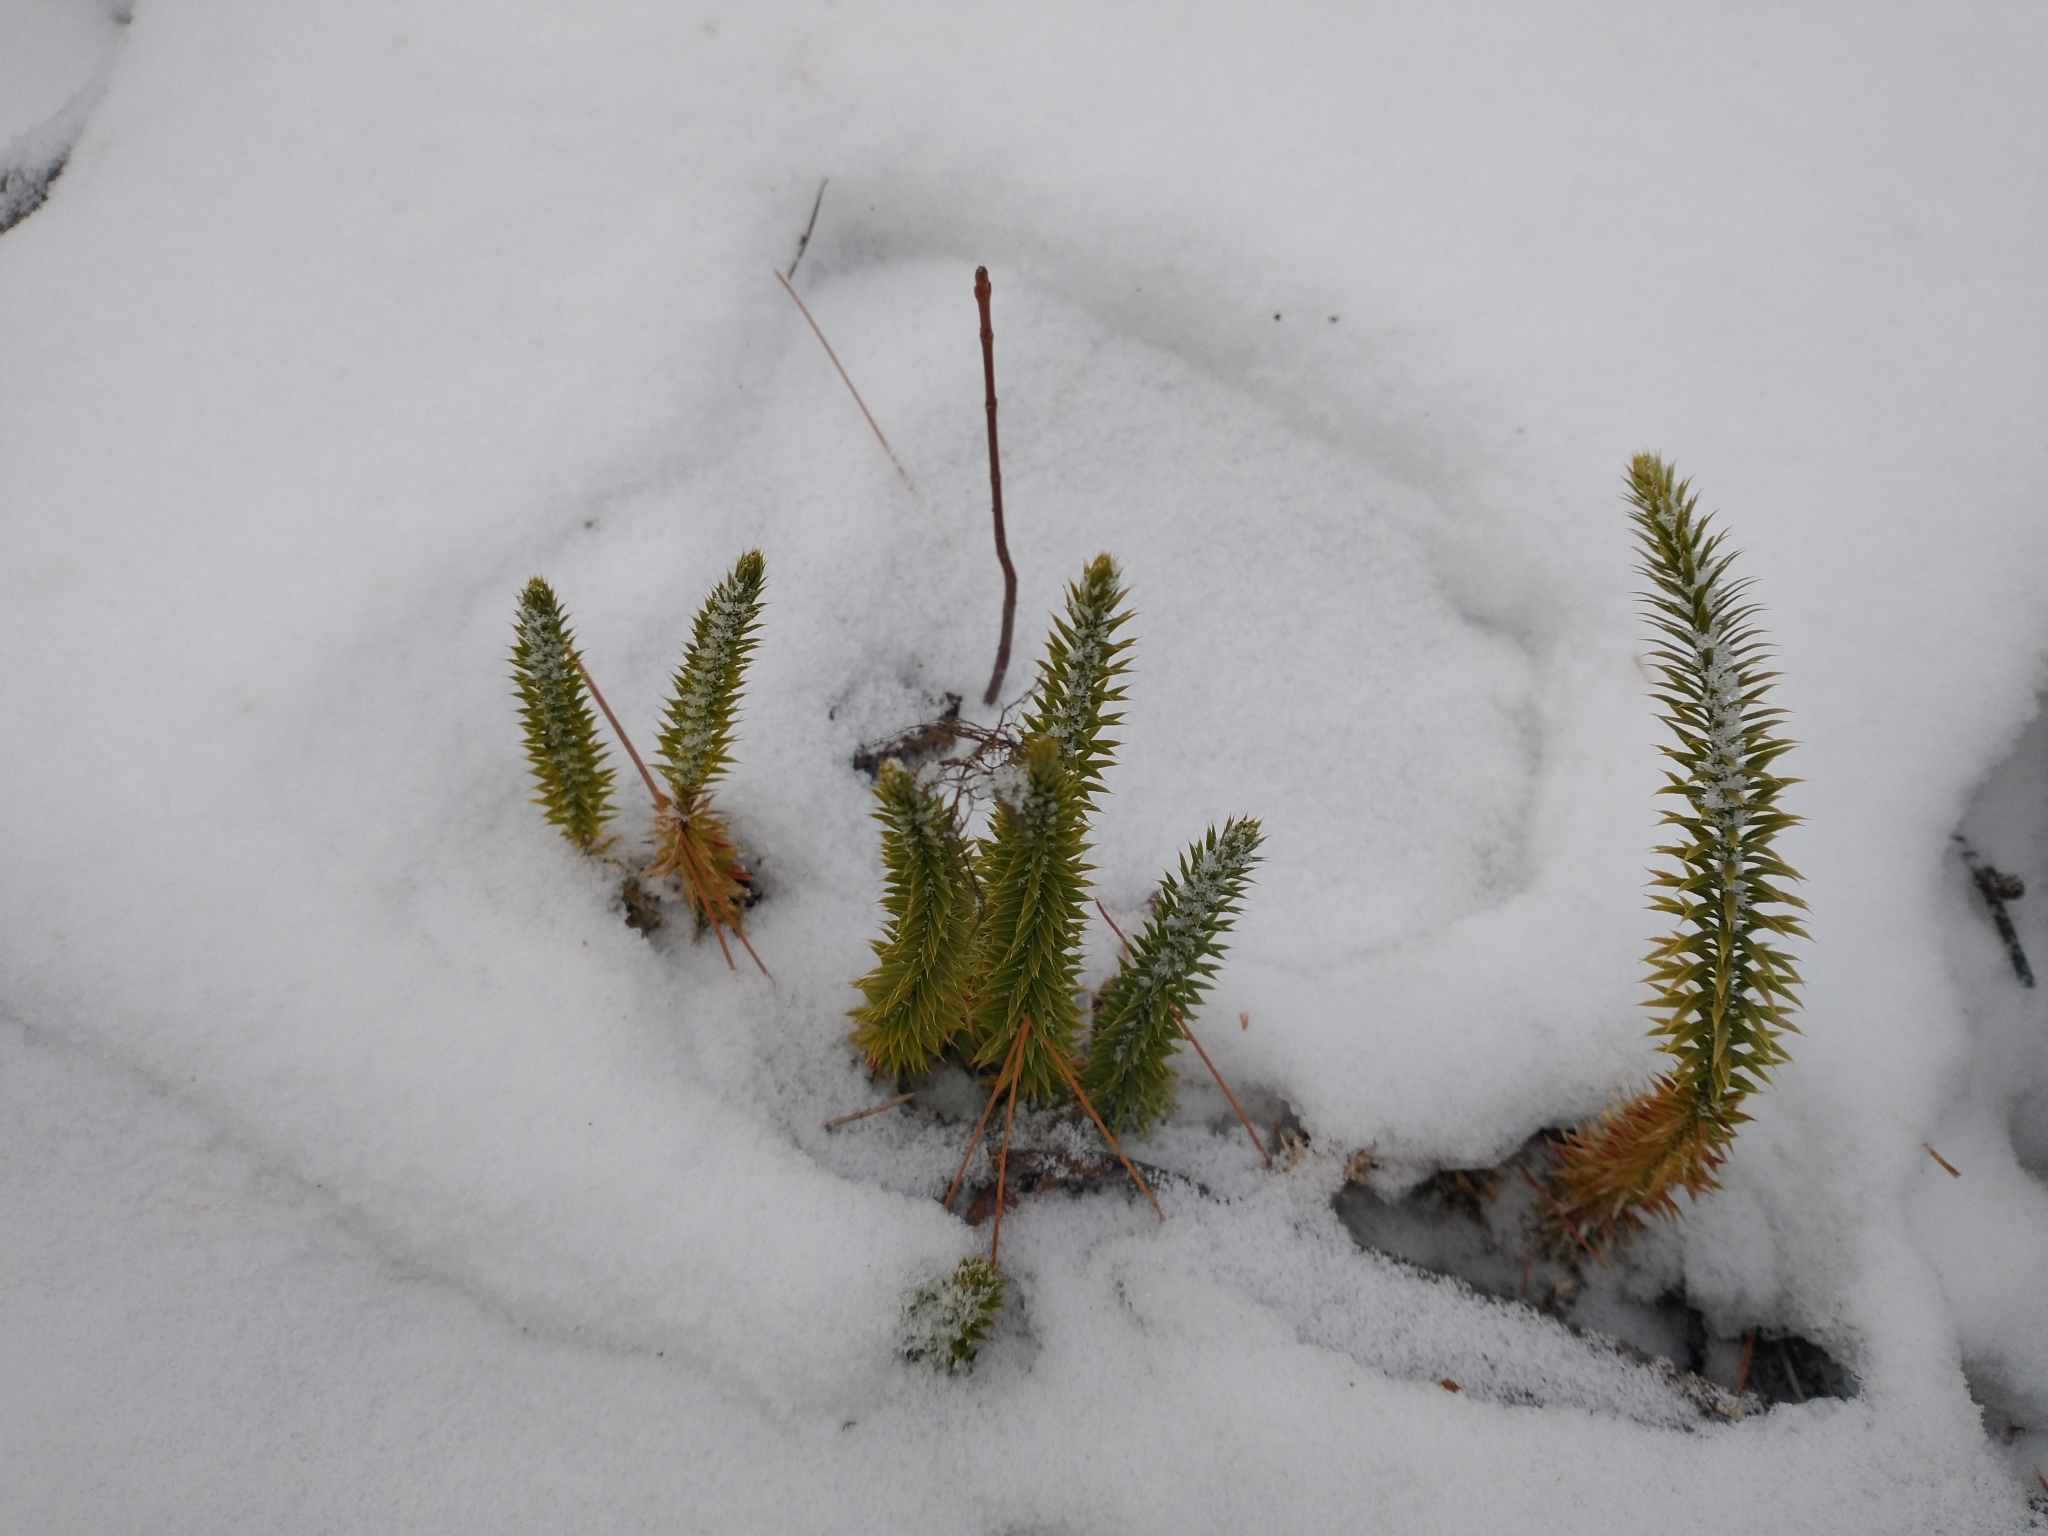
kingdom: Plantae
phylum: Tracheophyta
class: Lycopodiopsida
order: Lycopodiales
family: Lycopodiaceae
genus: Spinulum
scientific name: Spinulum annotinum
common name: Interrupted club-moss
